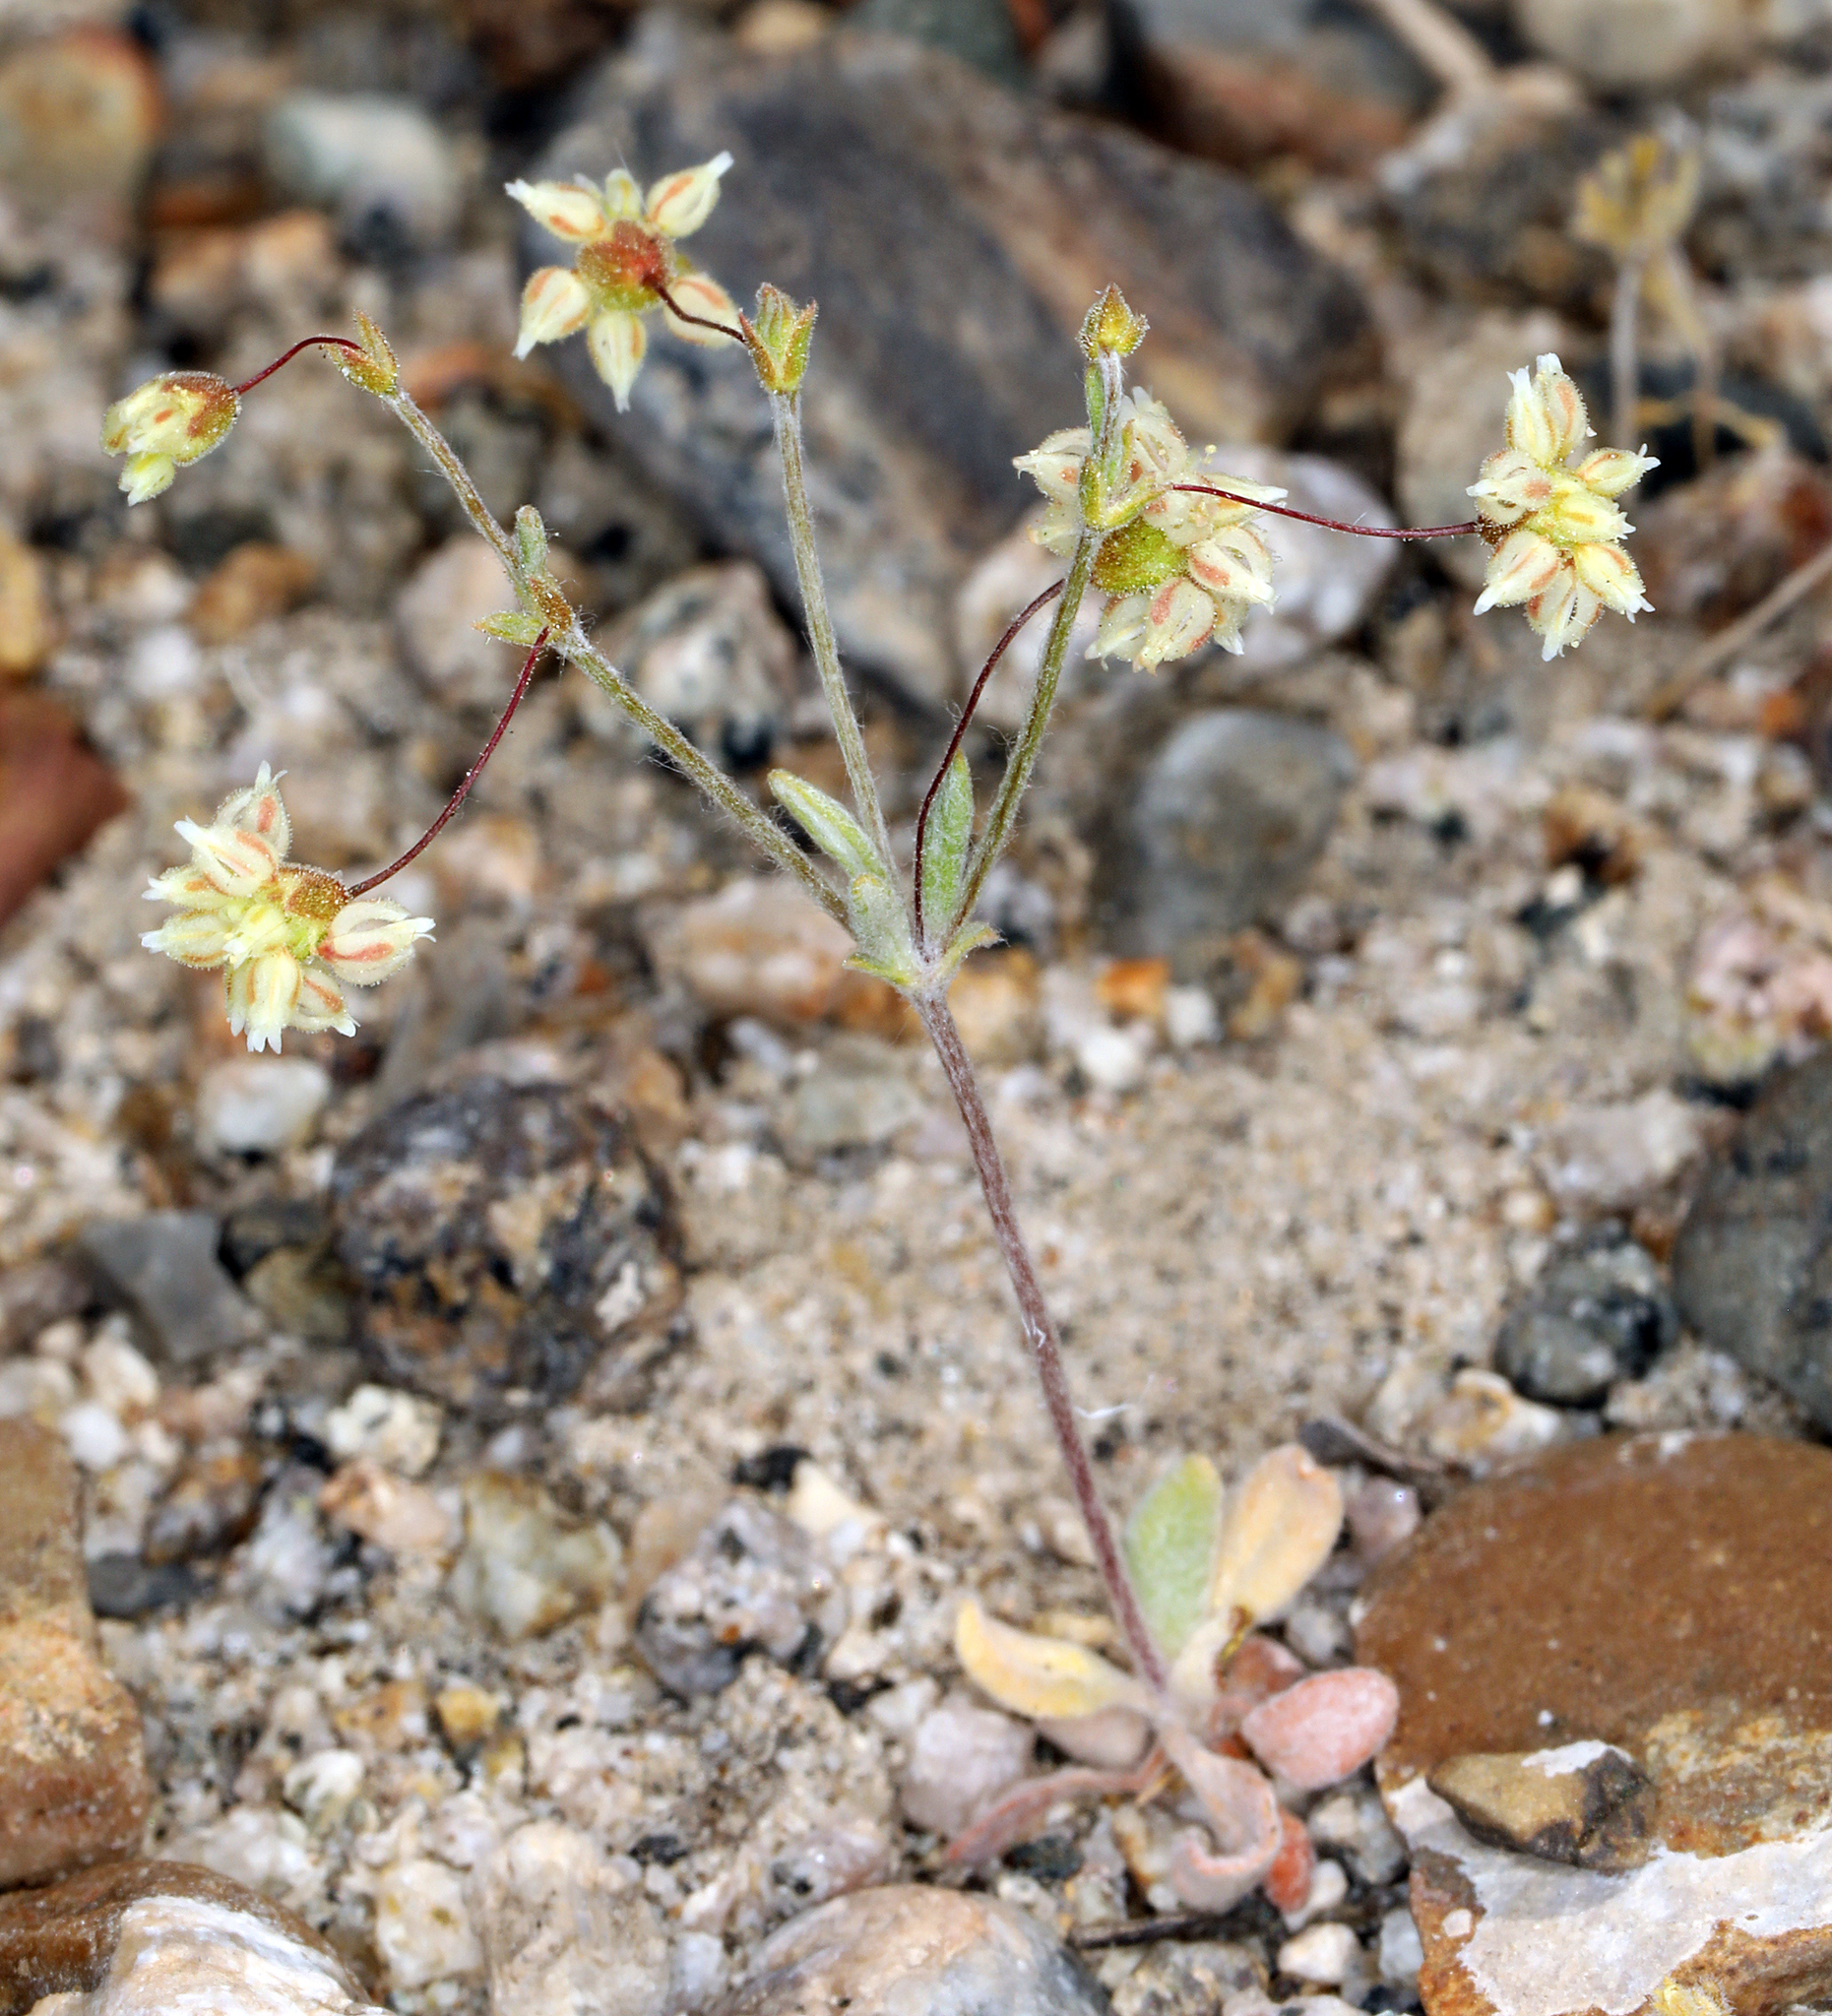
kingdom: Plantae
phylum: Tracheophyta
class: Magnoliopsida
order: Caryophyllales
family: Polygonaceae
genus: Eriogonum
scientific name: Eriogonum maculatum
